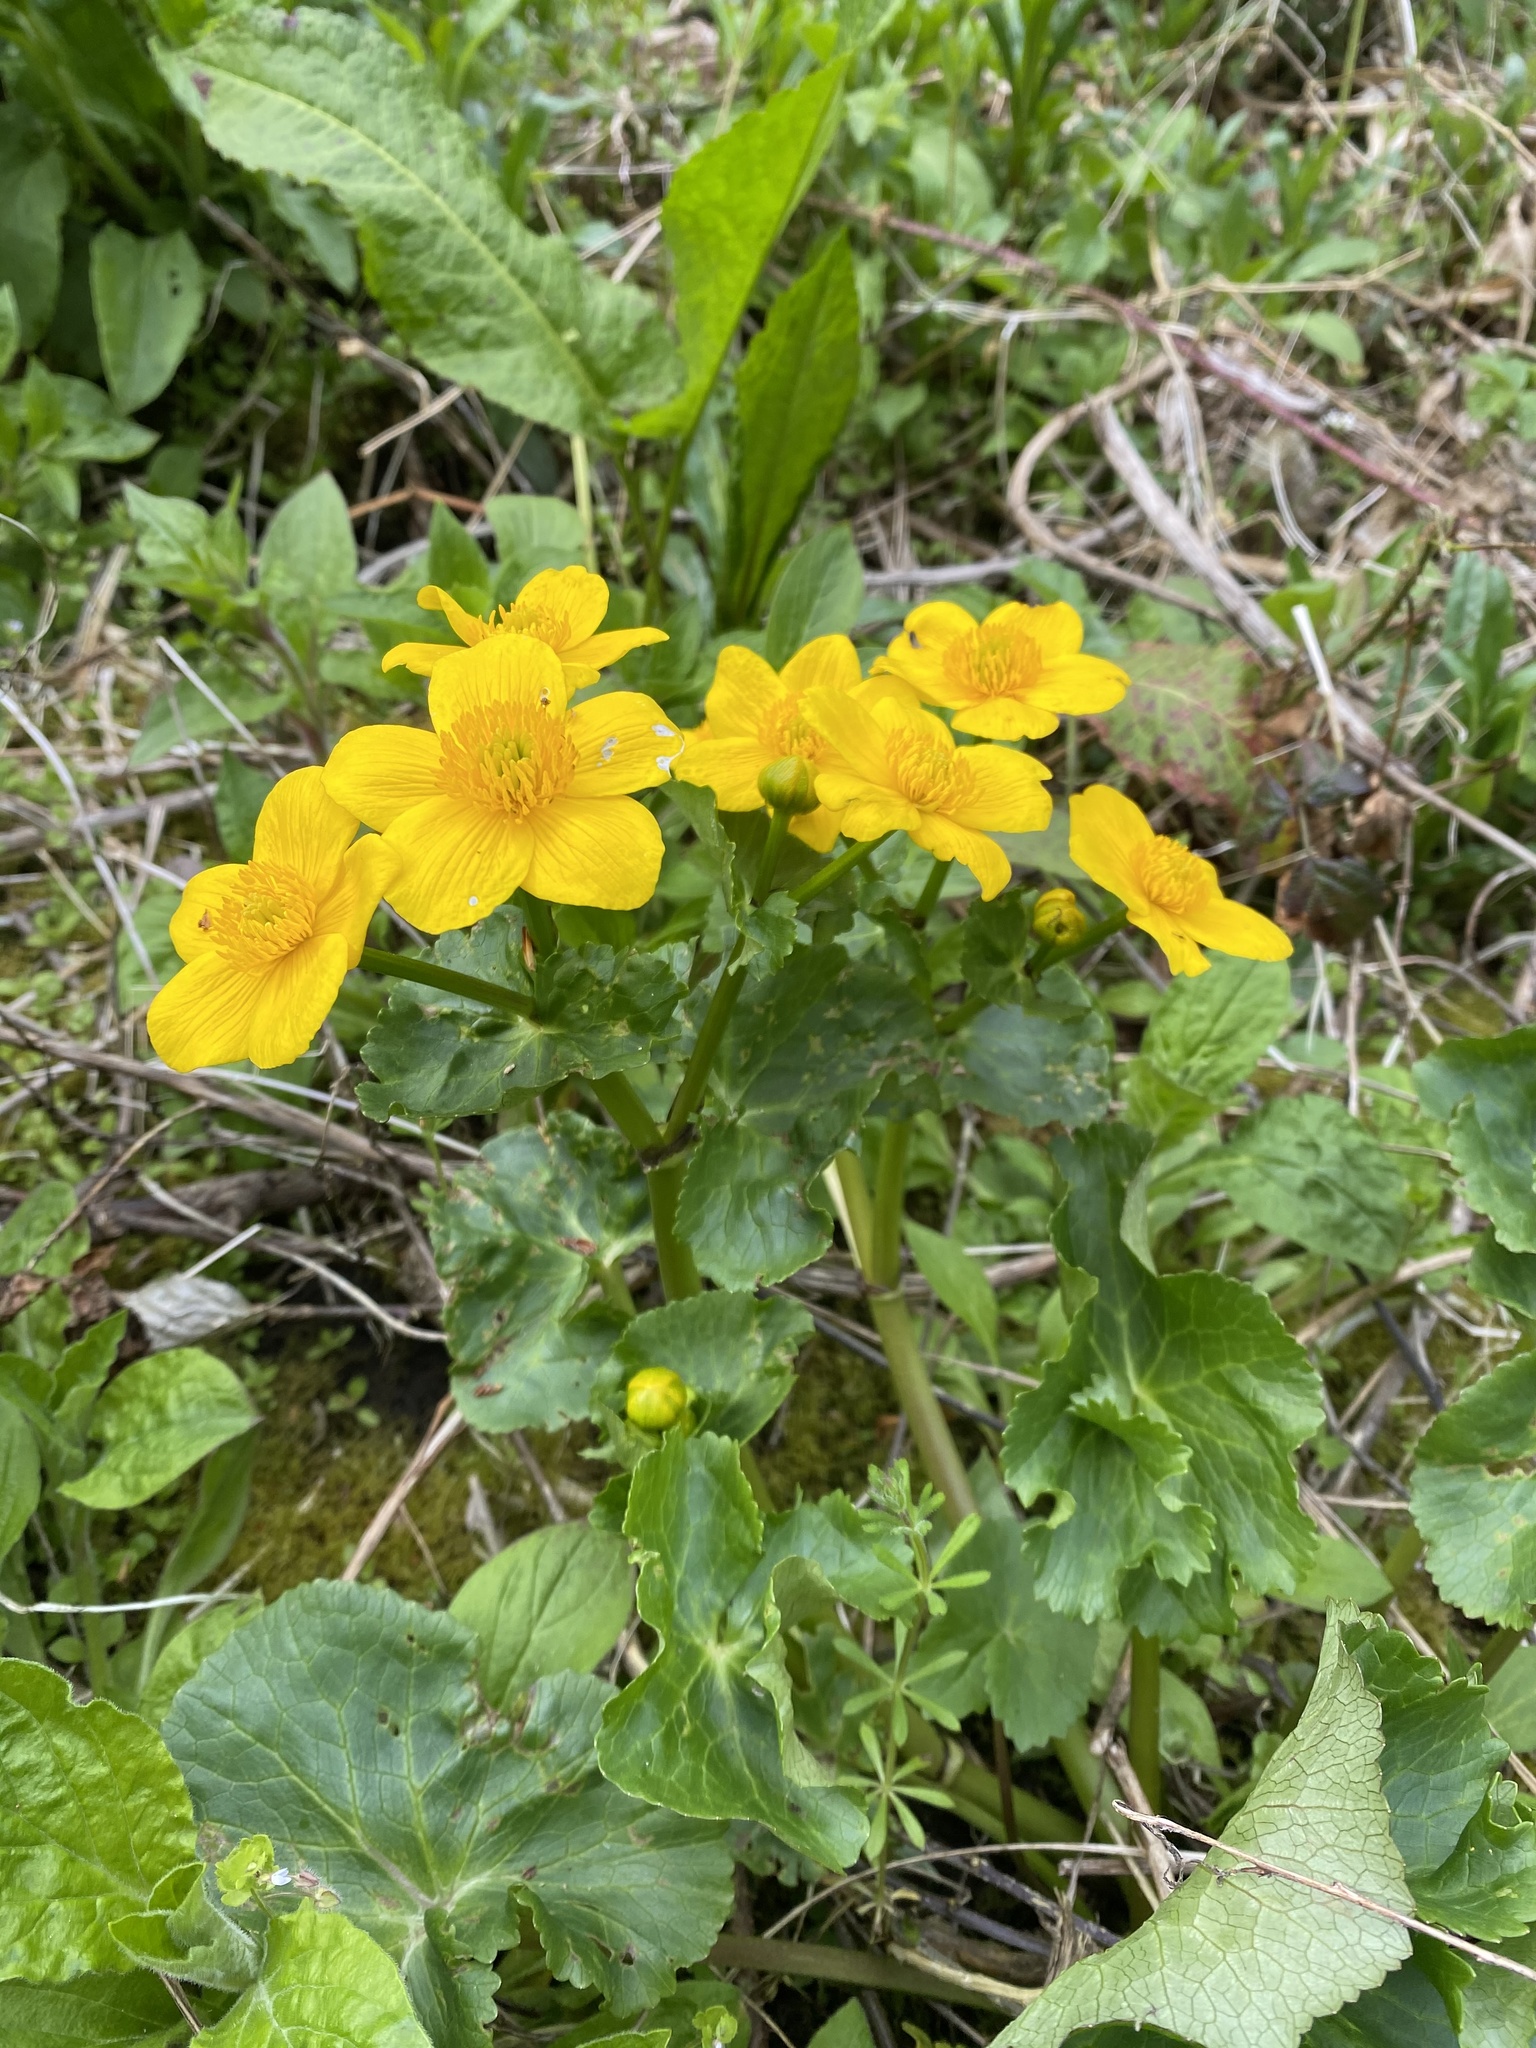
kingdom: Plantae
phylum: Tracheophyta
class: Magnoliopsida
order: Ranunculales
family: Ranunculaceae
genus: Caltha
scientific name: Caltha palustris
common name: Marsh marigold
